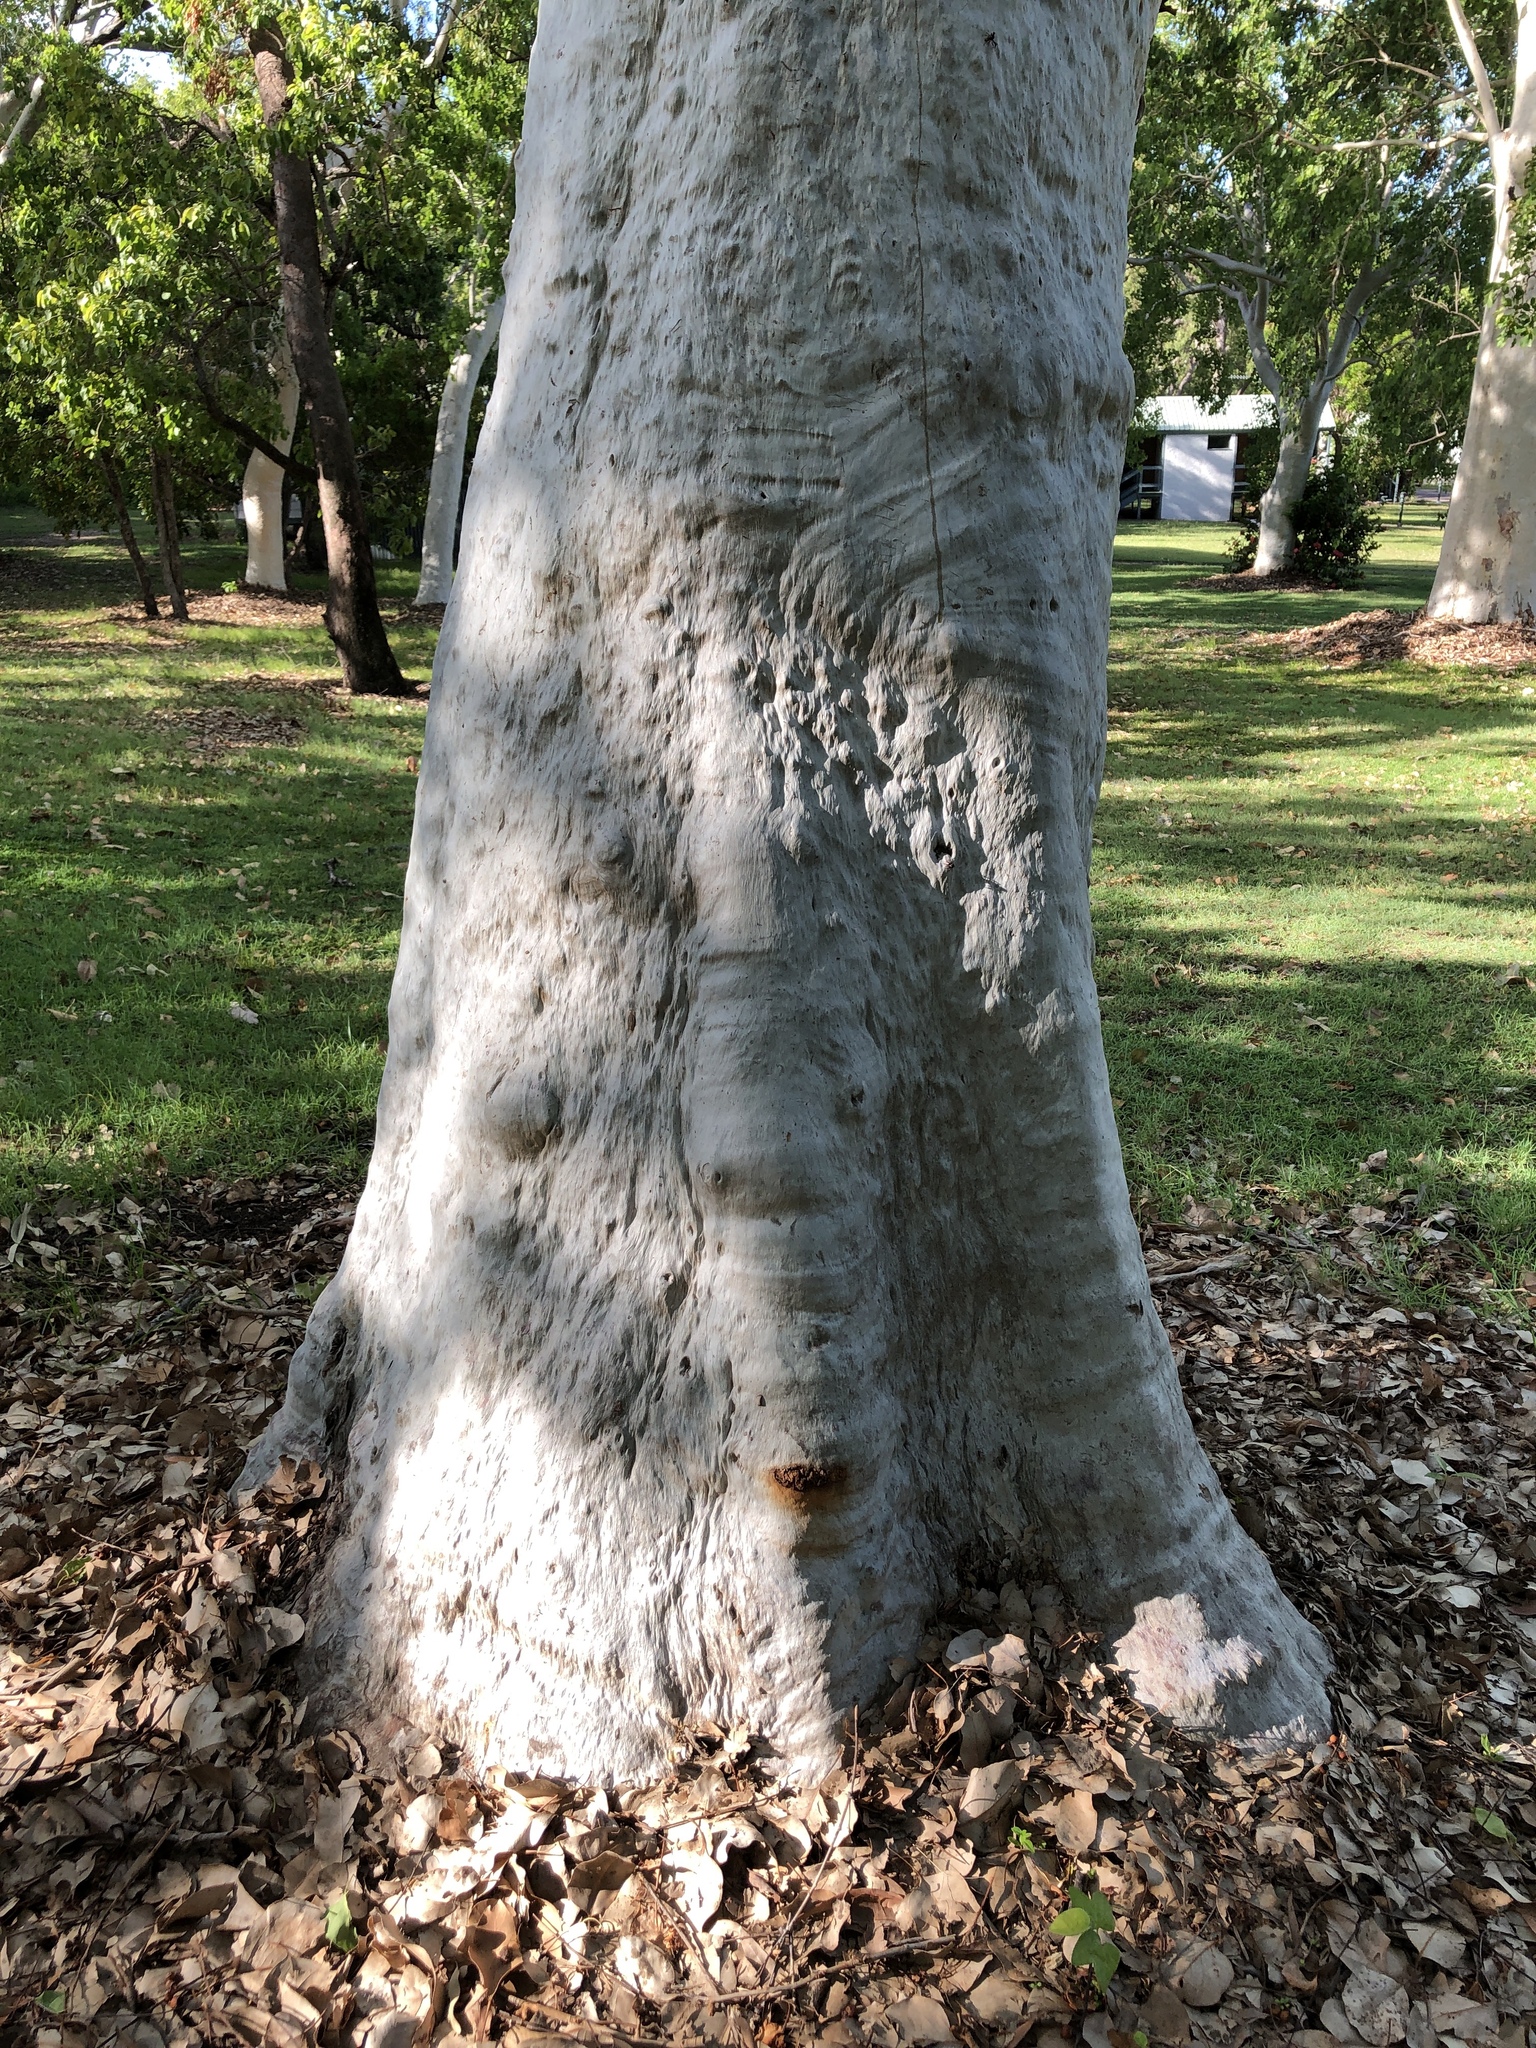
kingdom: Plantae
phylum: Tracheophyta
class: Magnoliopsida
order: Myrtales
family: Myrtaceae
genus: Eucalyptus
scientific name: Eucalyptus platyphylla
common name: Poplar-gum
